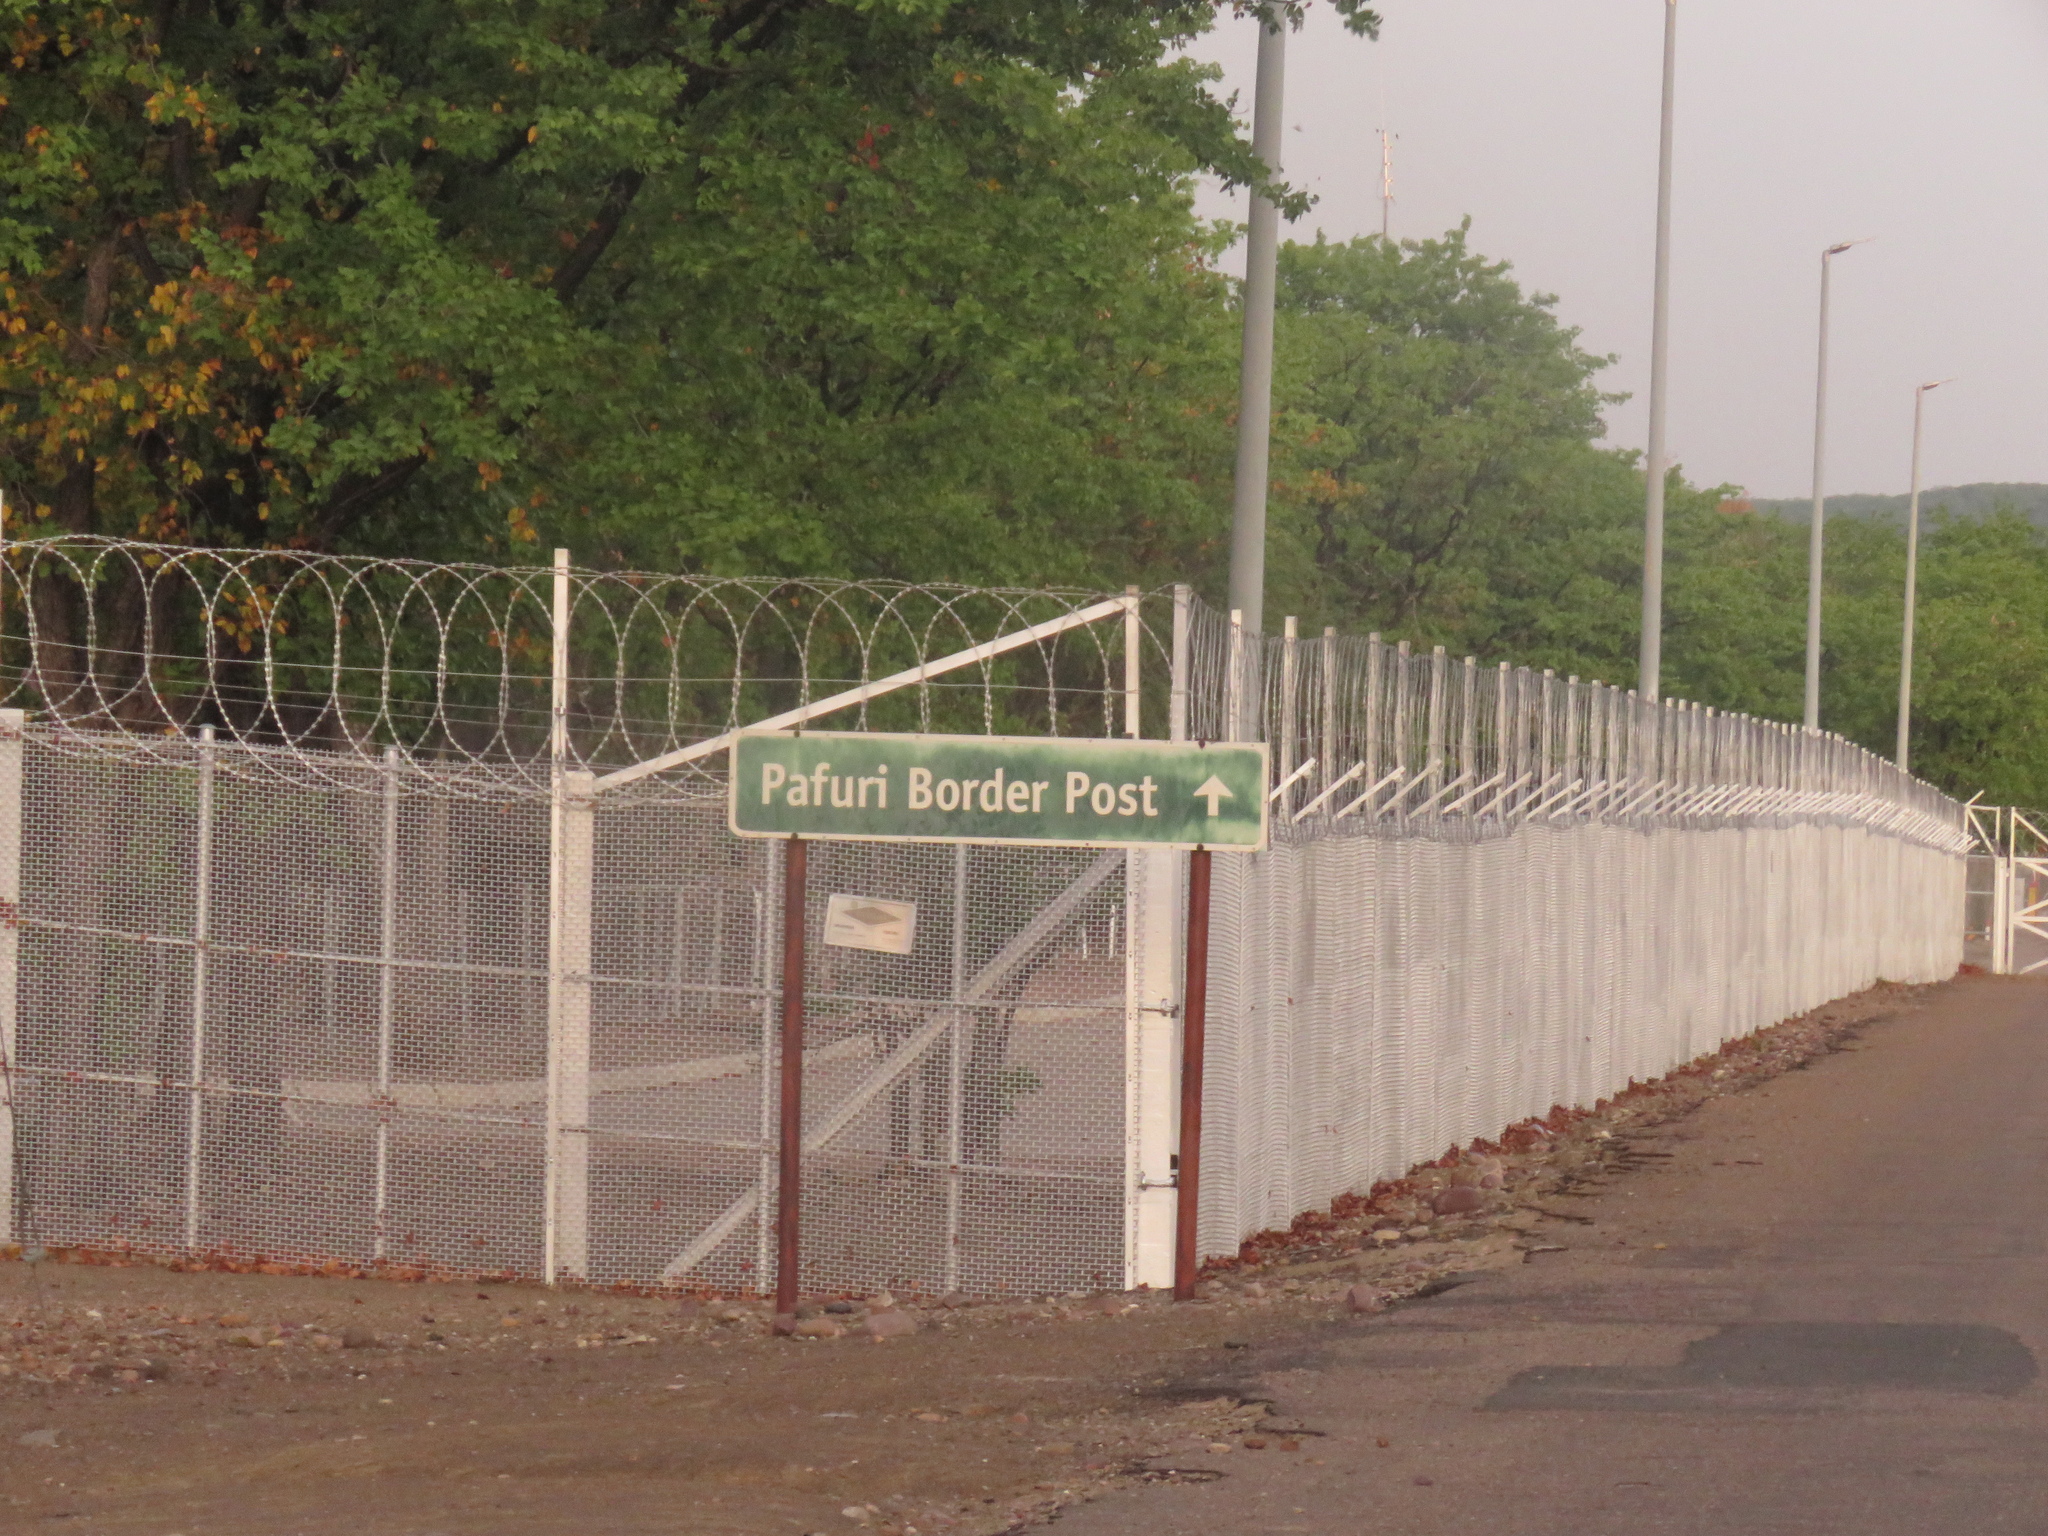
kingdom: Plantae
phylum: Tracheophyta
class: Magnoliopsida
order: Fabales
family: Fabaceae
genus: Colophospermum
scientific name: Colophospermum mopane
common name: Mopane
